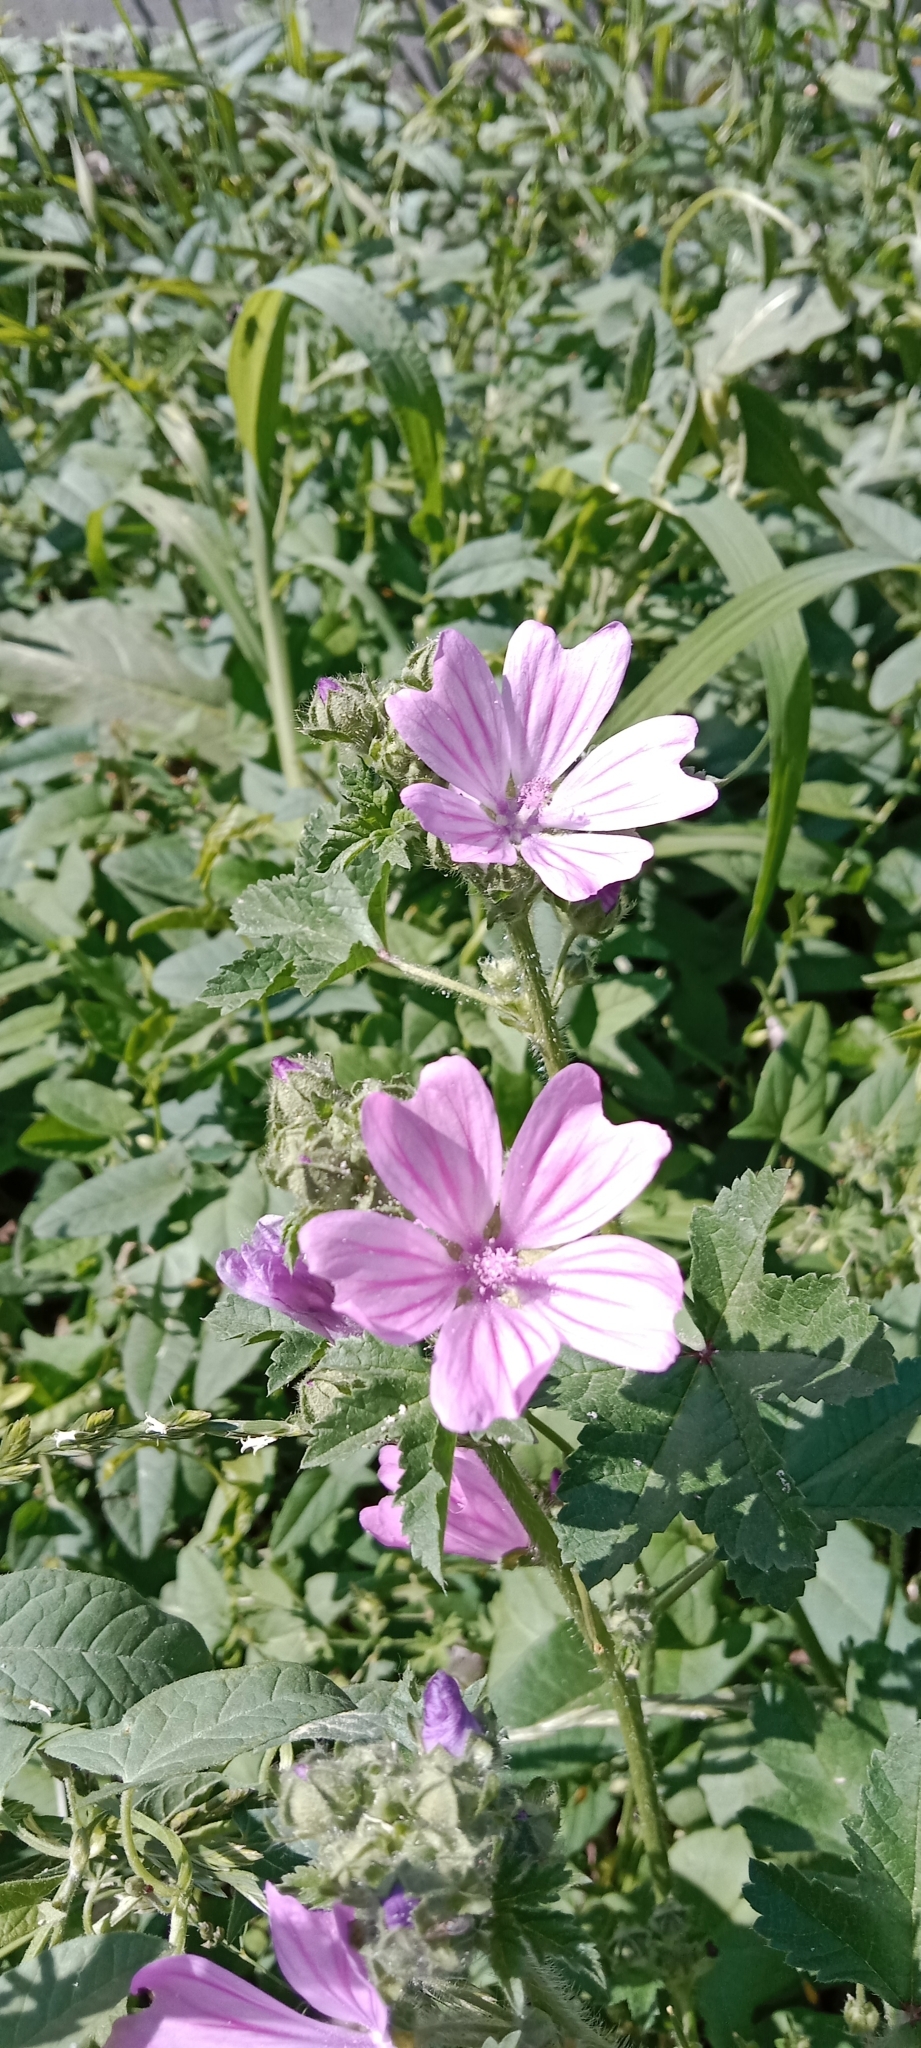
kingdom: Plantae
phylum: Tracheophyta
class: Magnoliopsida
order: Malvales
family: Malvaceae
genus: Malva
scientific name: Malva sylvestris
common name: Common mallow
